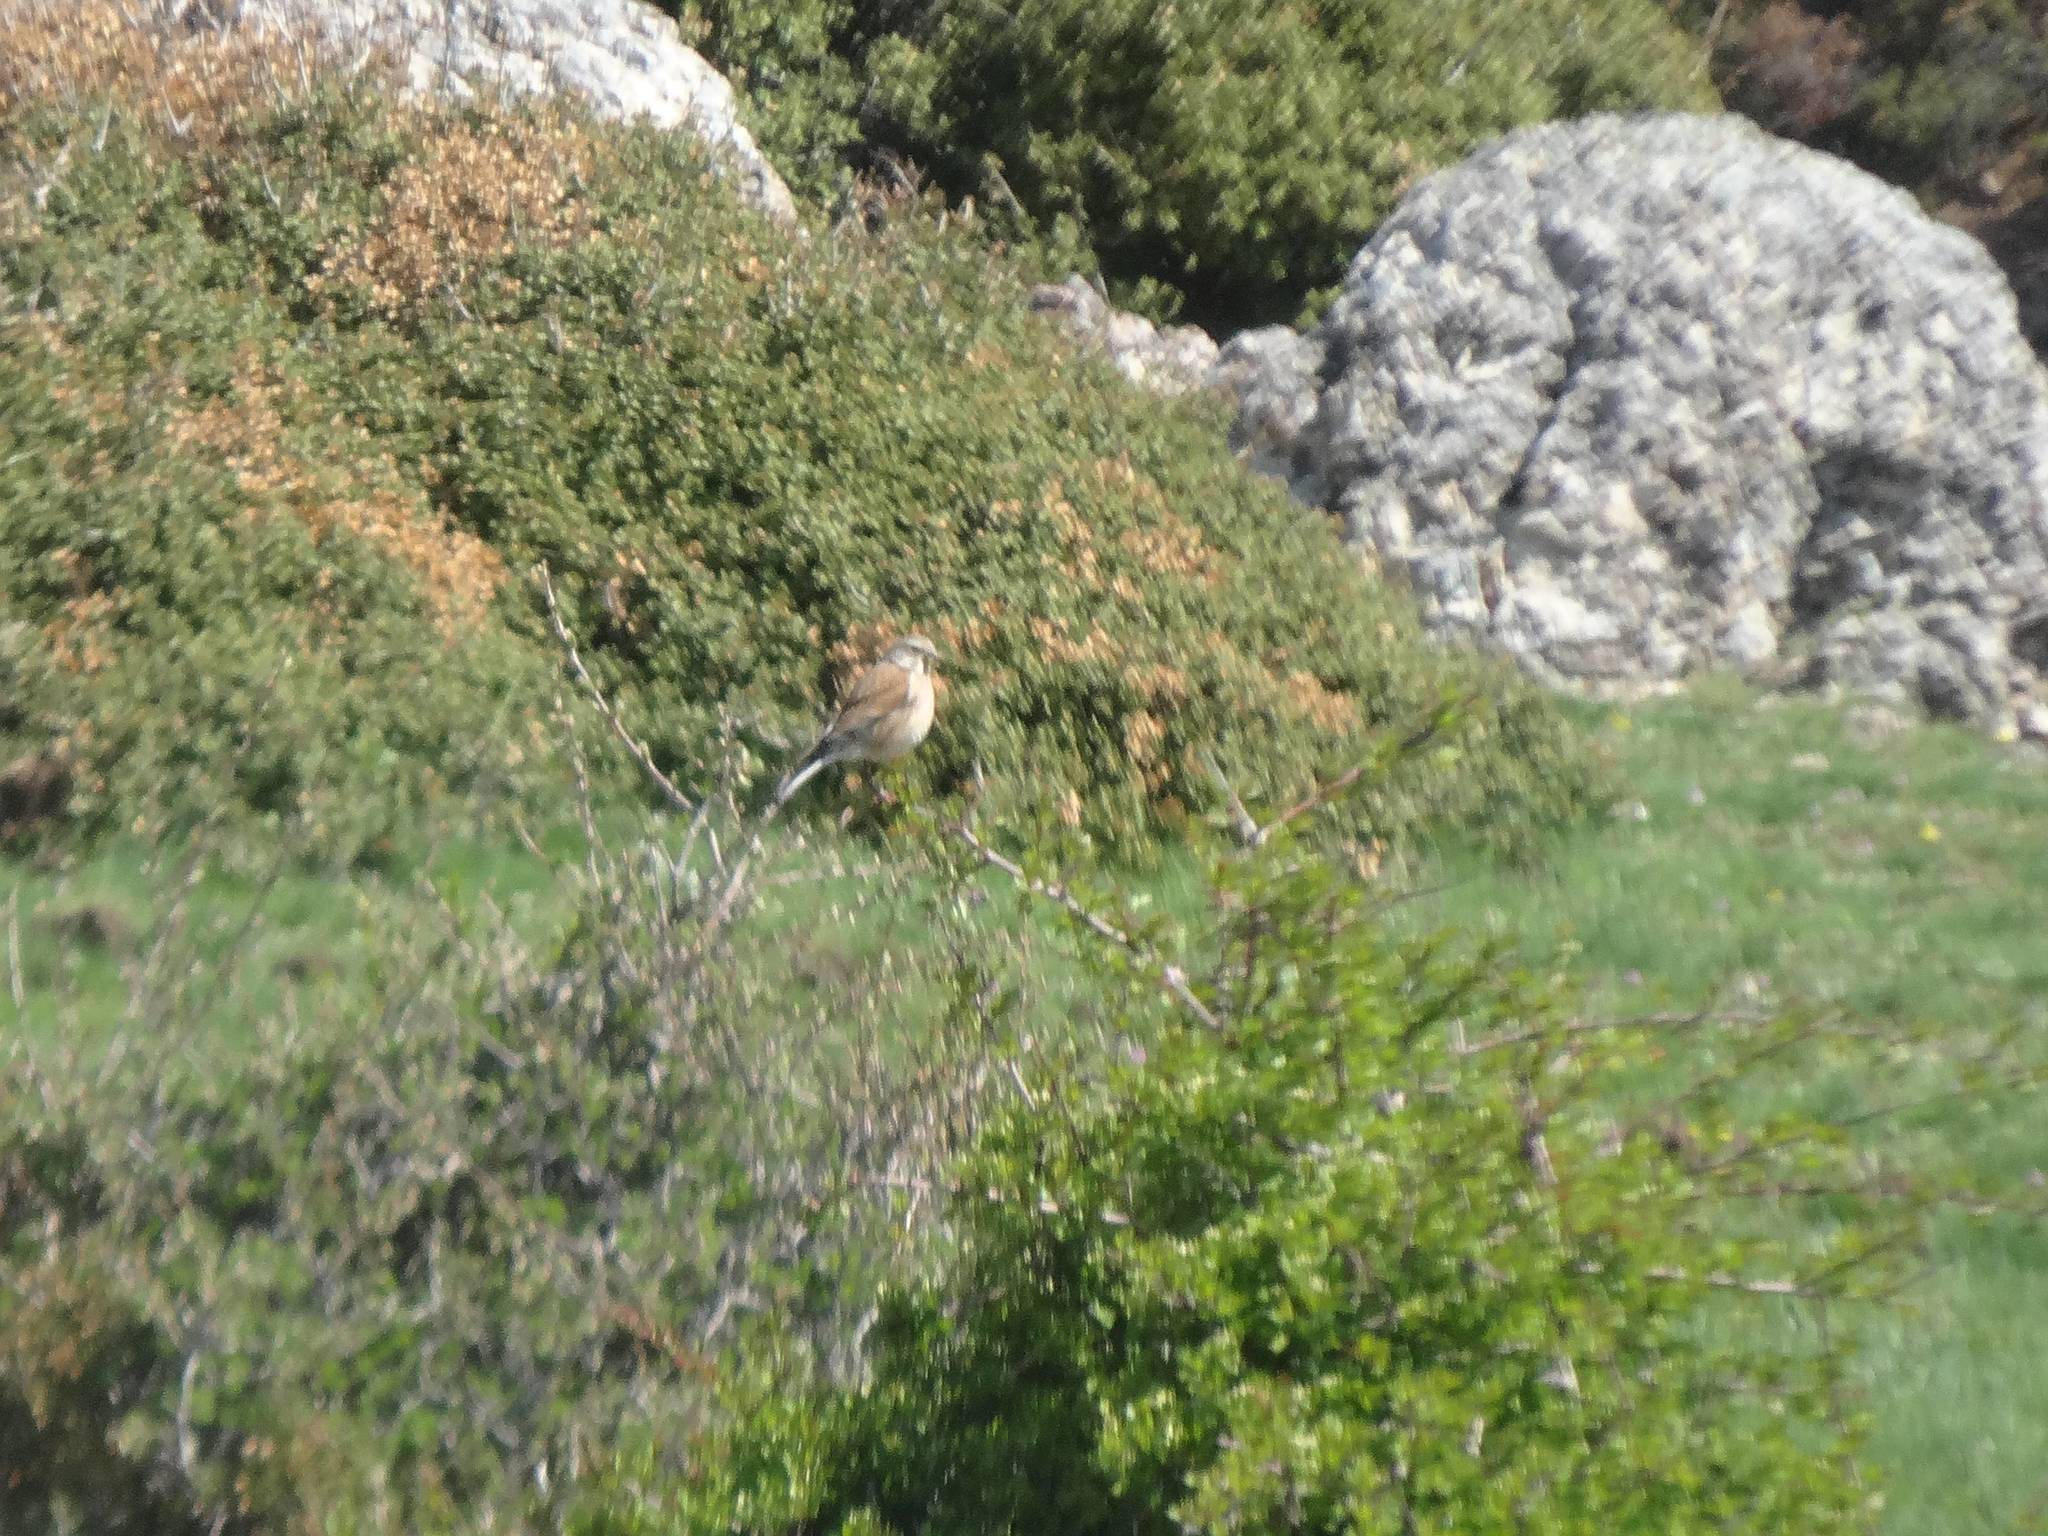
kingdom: Animalia
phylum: Chordata
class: Aves
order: Passeriformes
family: Fringillidae
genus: Linaria
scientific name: Linaria cannabina
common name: Common linnet
